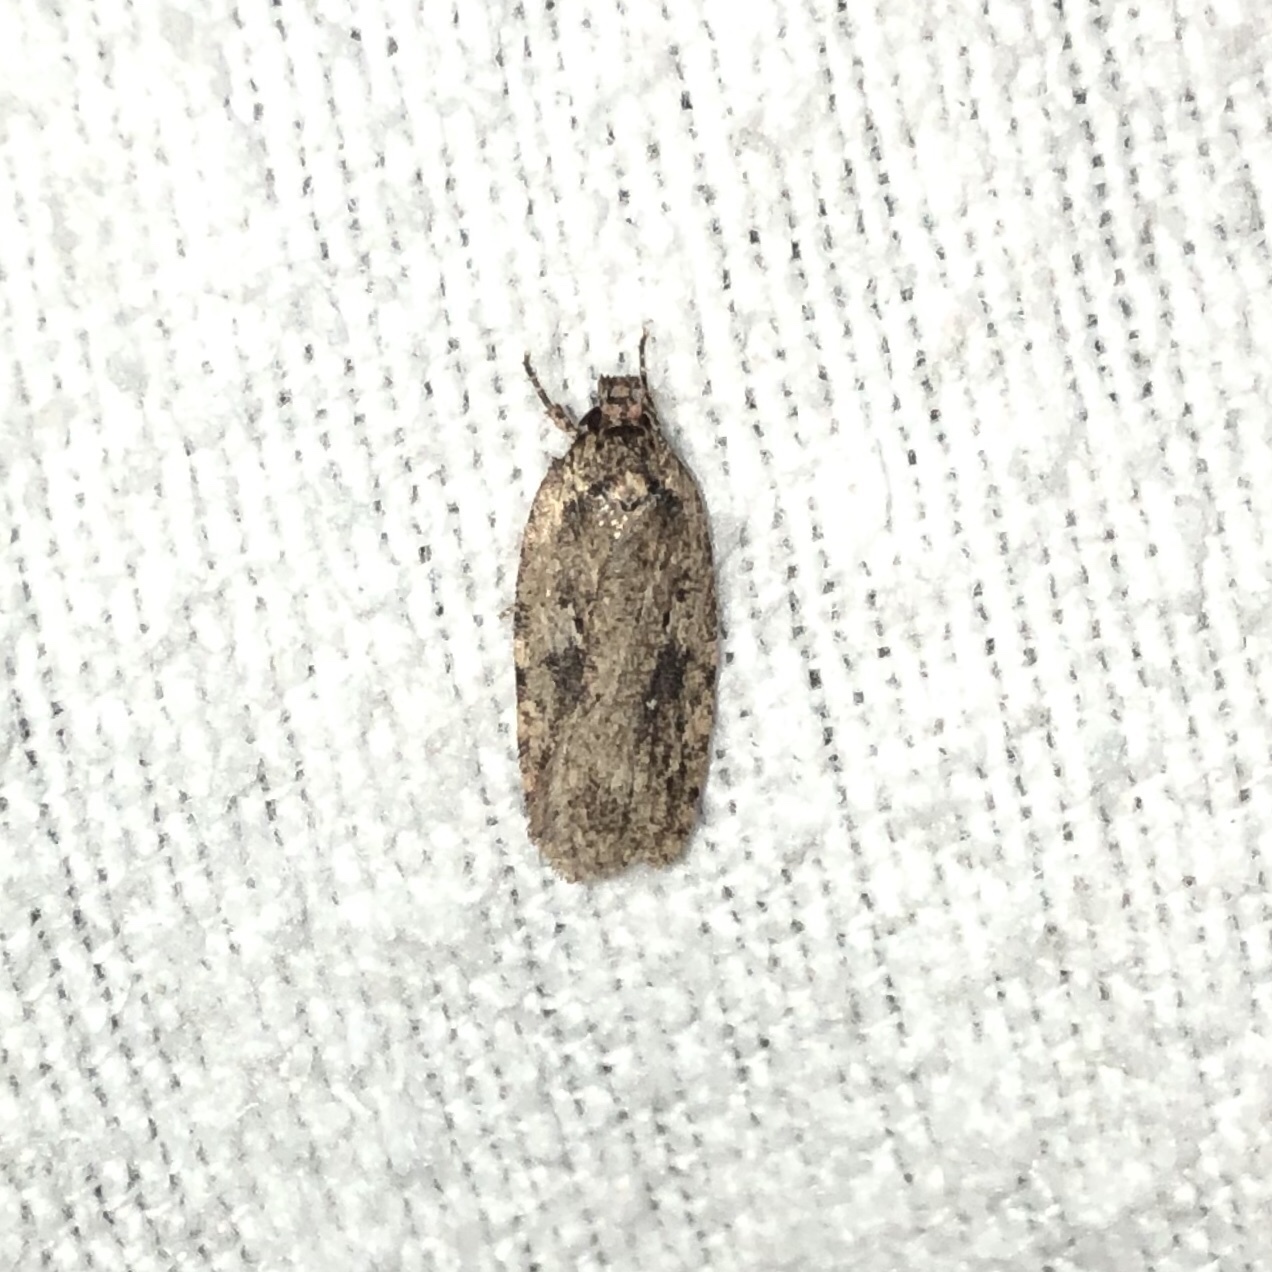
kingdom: Animalia
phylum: Arthropoda
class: Insecta
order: Lepidoptera
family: Depressariidae
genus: Agonopterix
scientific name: Agonopterix pulvipennella
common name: Goldenrod leafffolder
